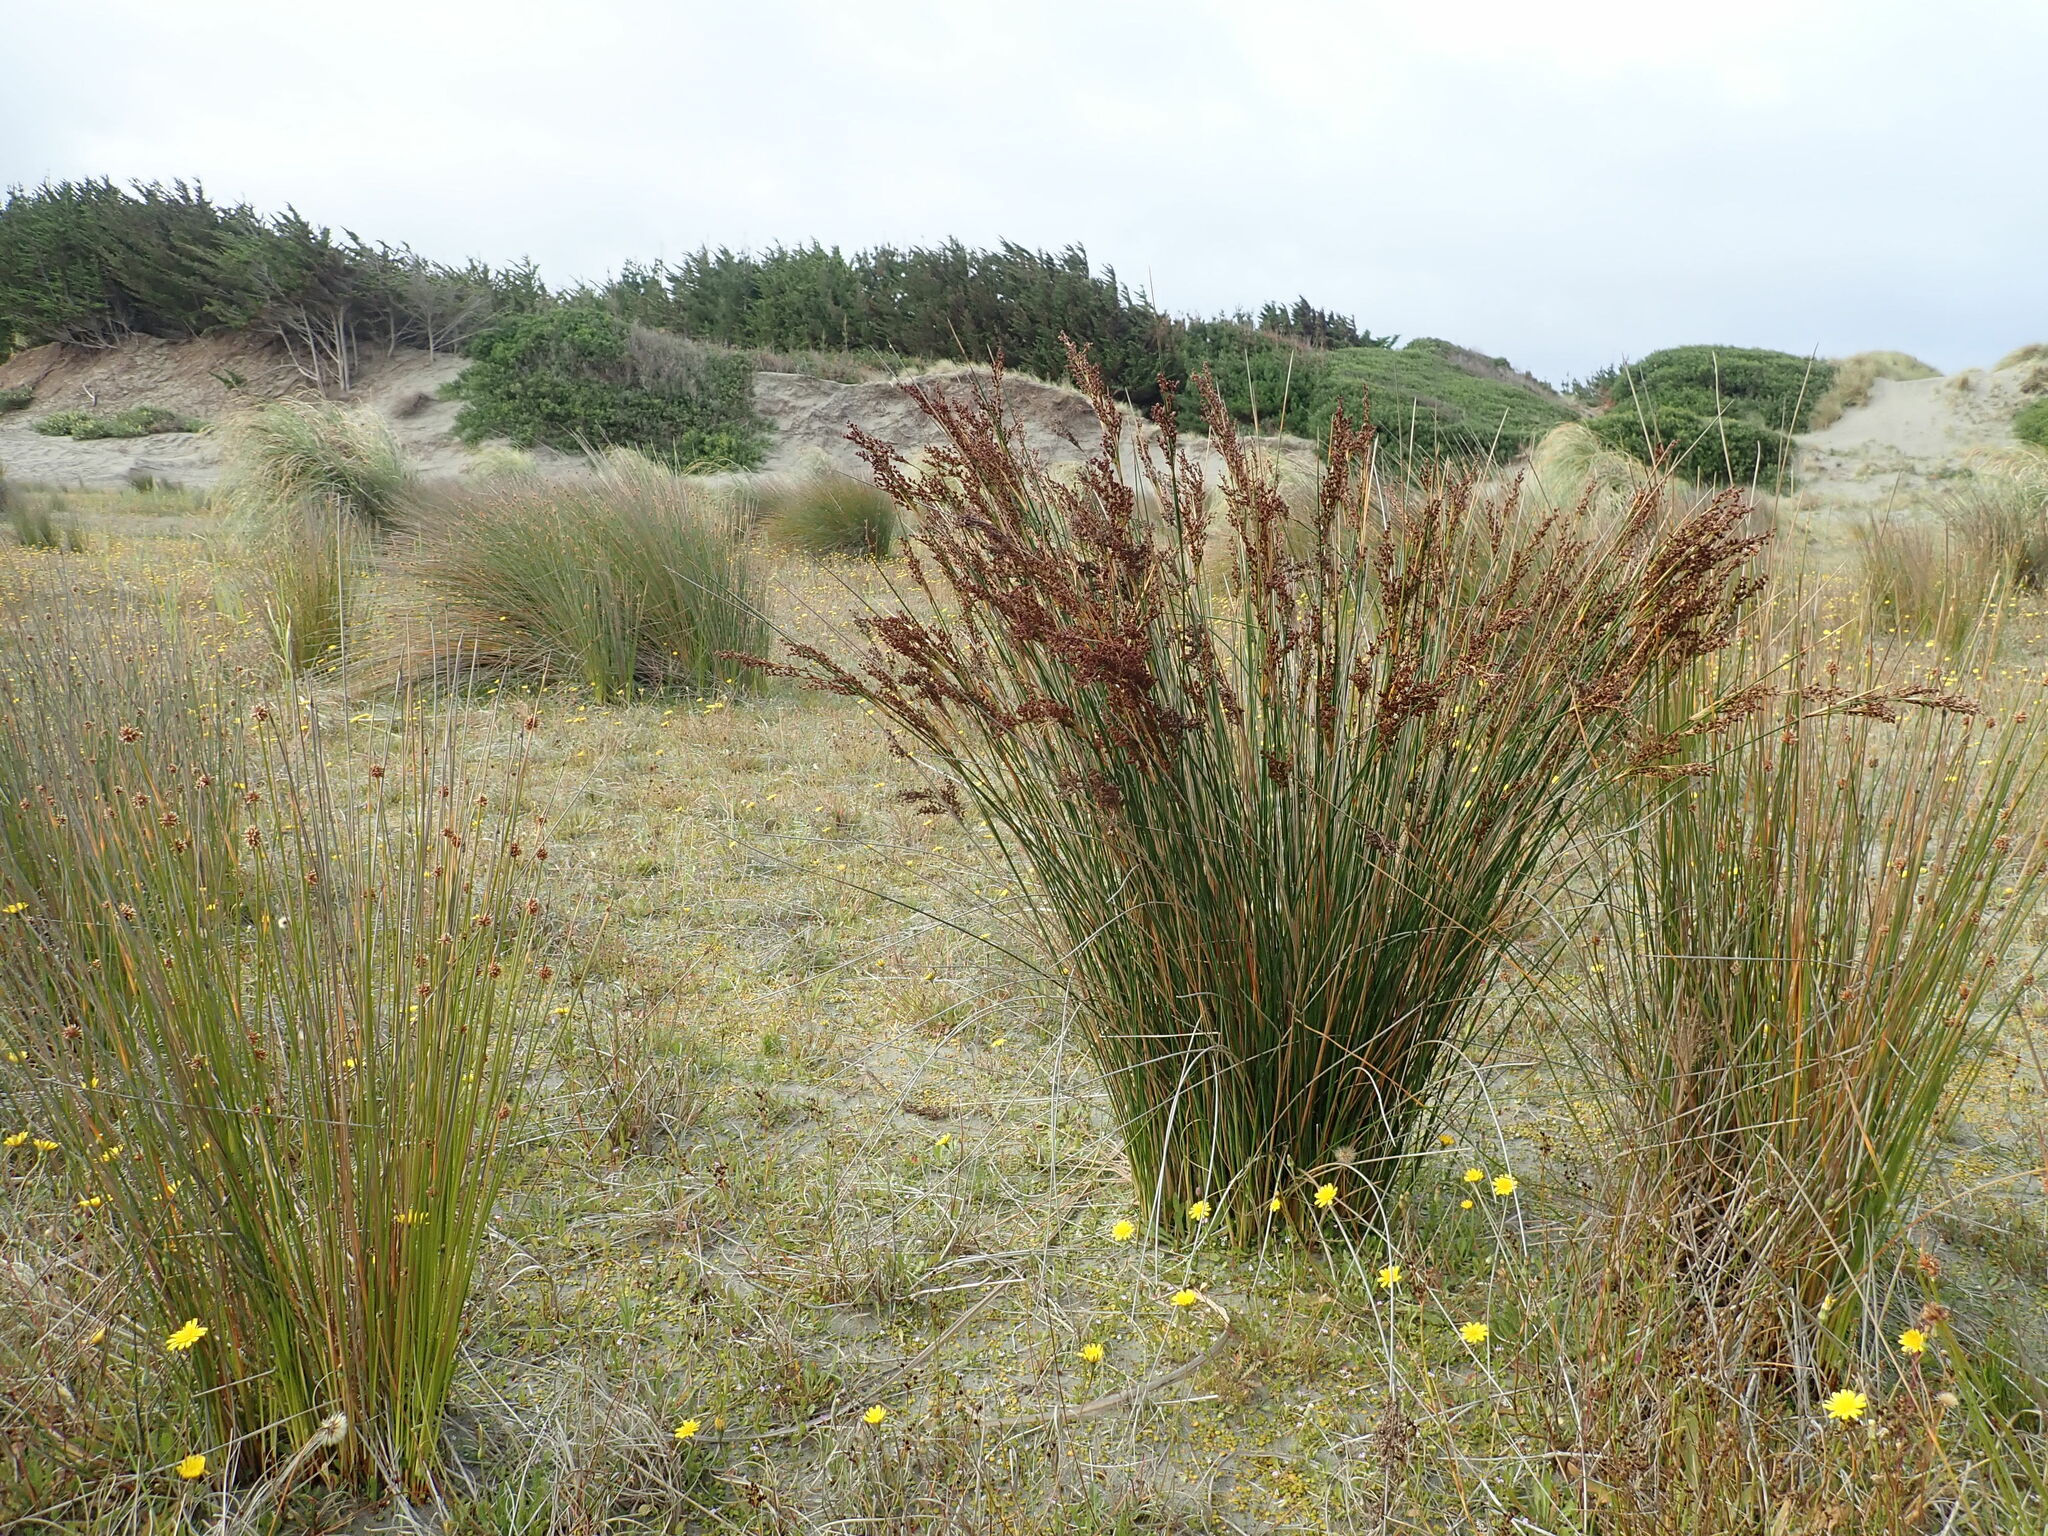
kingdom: Plantae
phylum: Tracheophyta
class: Liliopsida
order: Poales
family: Juncaceae
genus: Juncus
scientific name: Juncus kraussii
